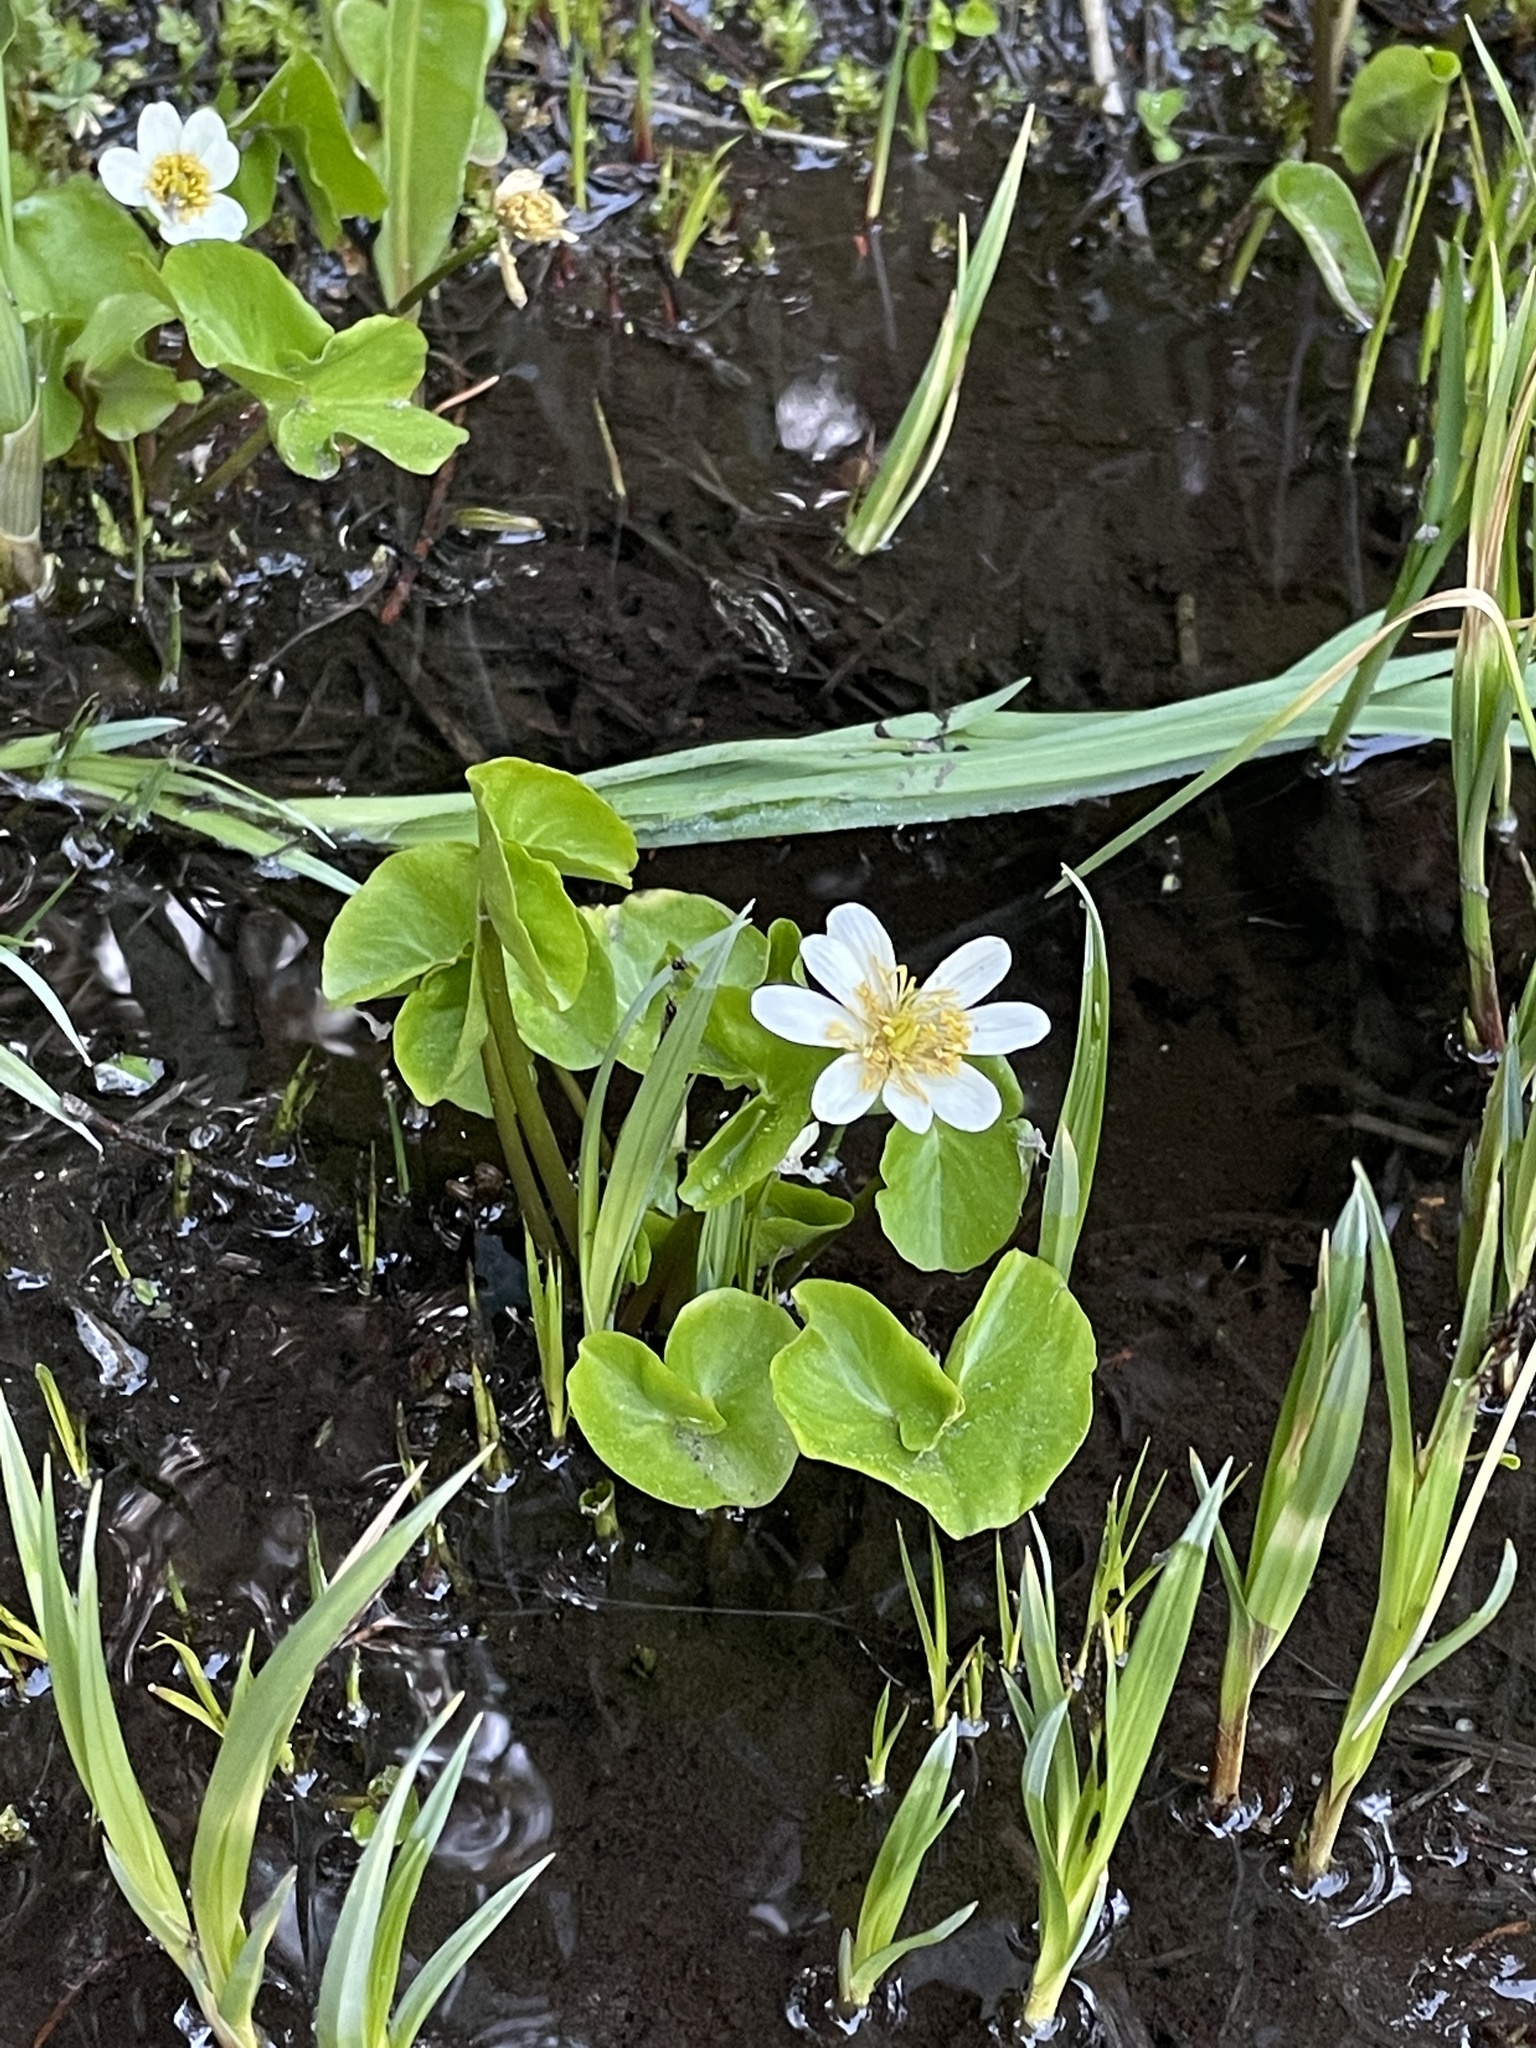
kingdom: Plantae
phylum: Tracheophyta
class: Magnoliopsida
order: Ranunculales
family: Ranunculaceae
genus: Caltha
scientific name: Caltha leptosepala
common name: Elkslip
